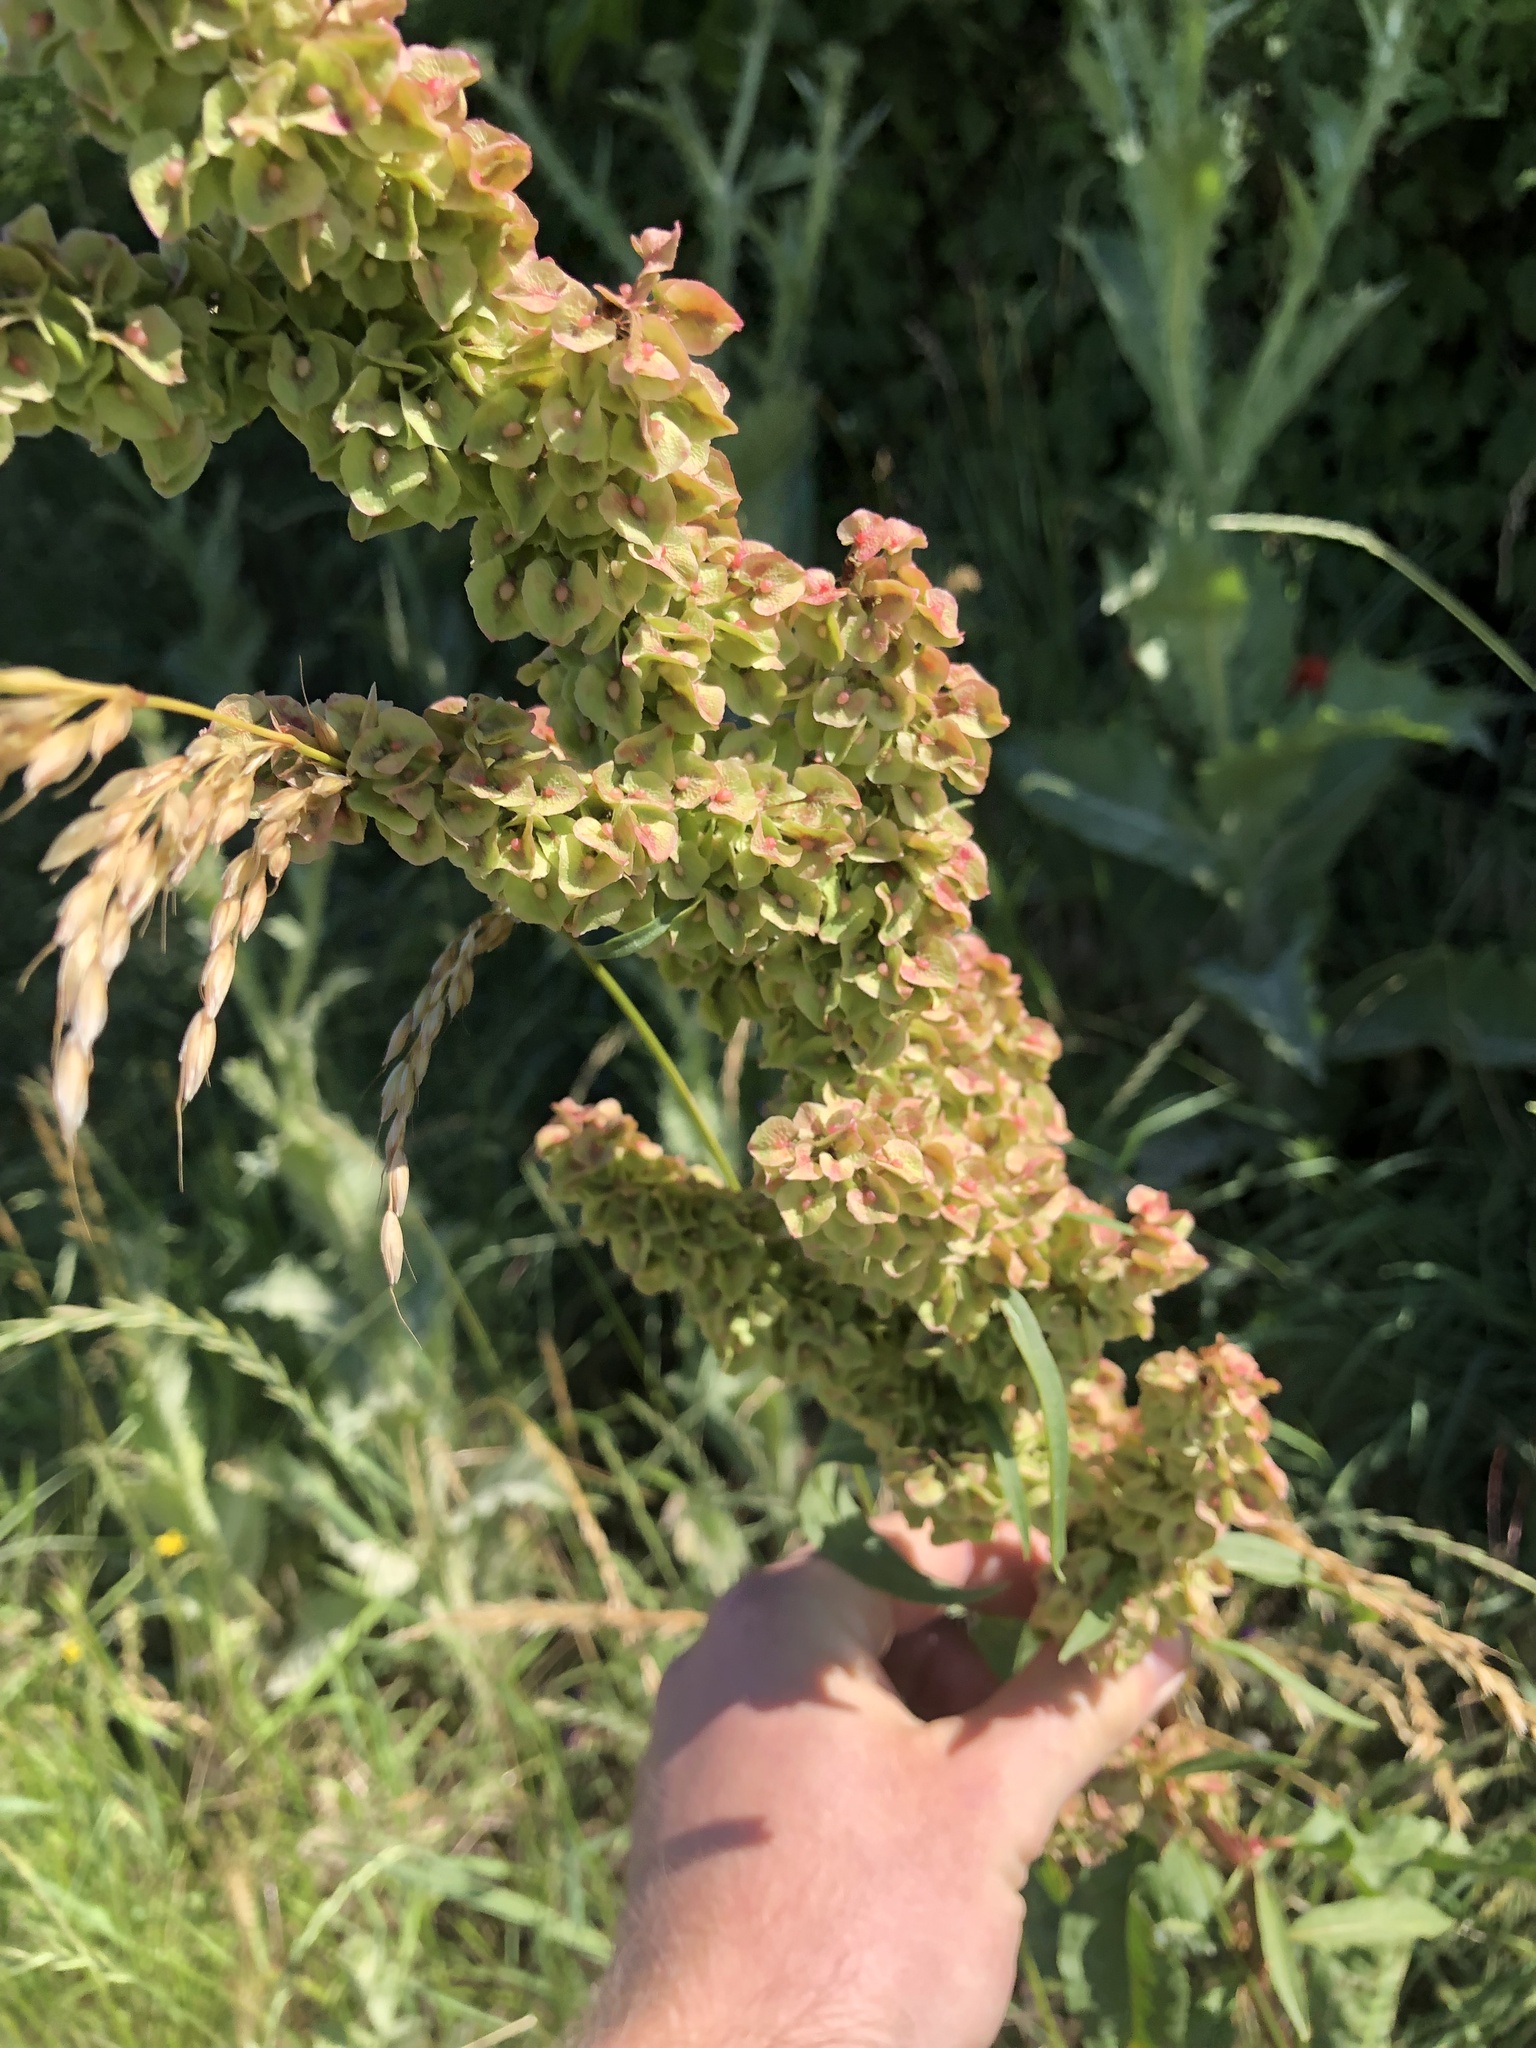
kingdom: Plantae
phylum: Tracheophyta
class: Magnoliopsida
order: Caryophyllales
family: Polygonaceae
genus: Rumex
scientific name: Rumex patientia
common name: Patience dock
